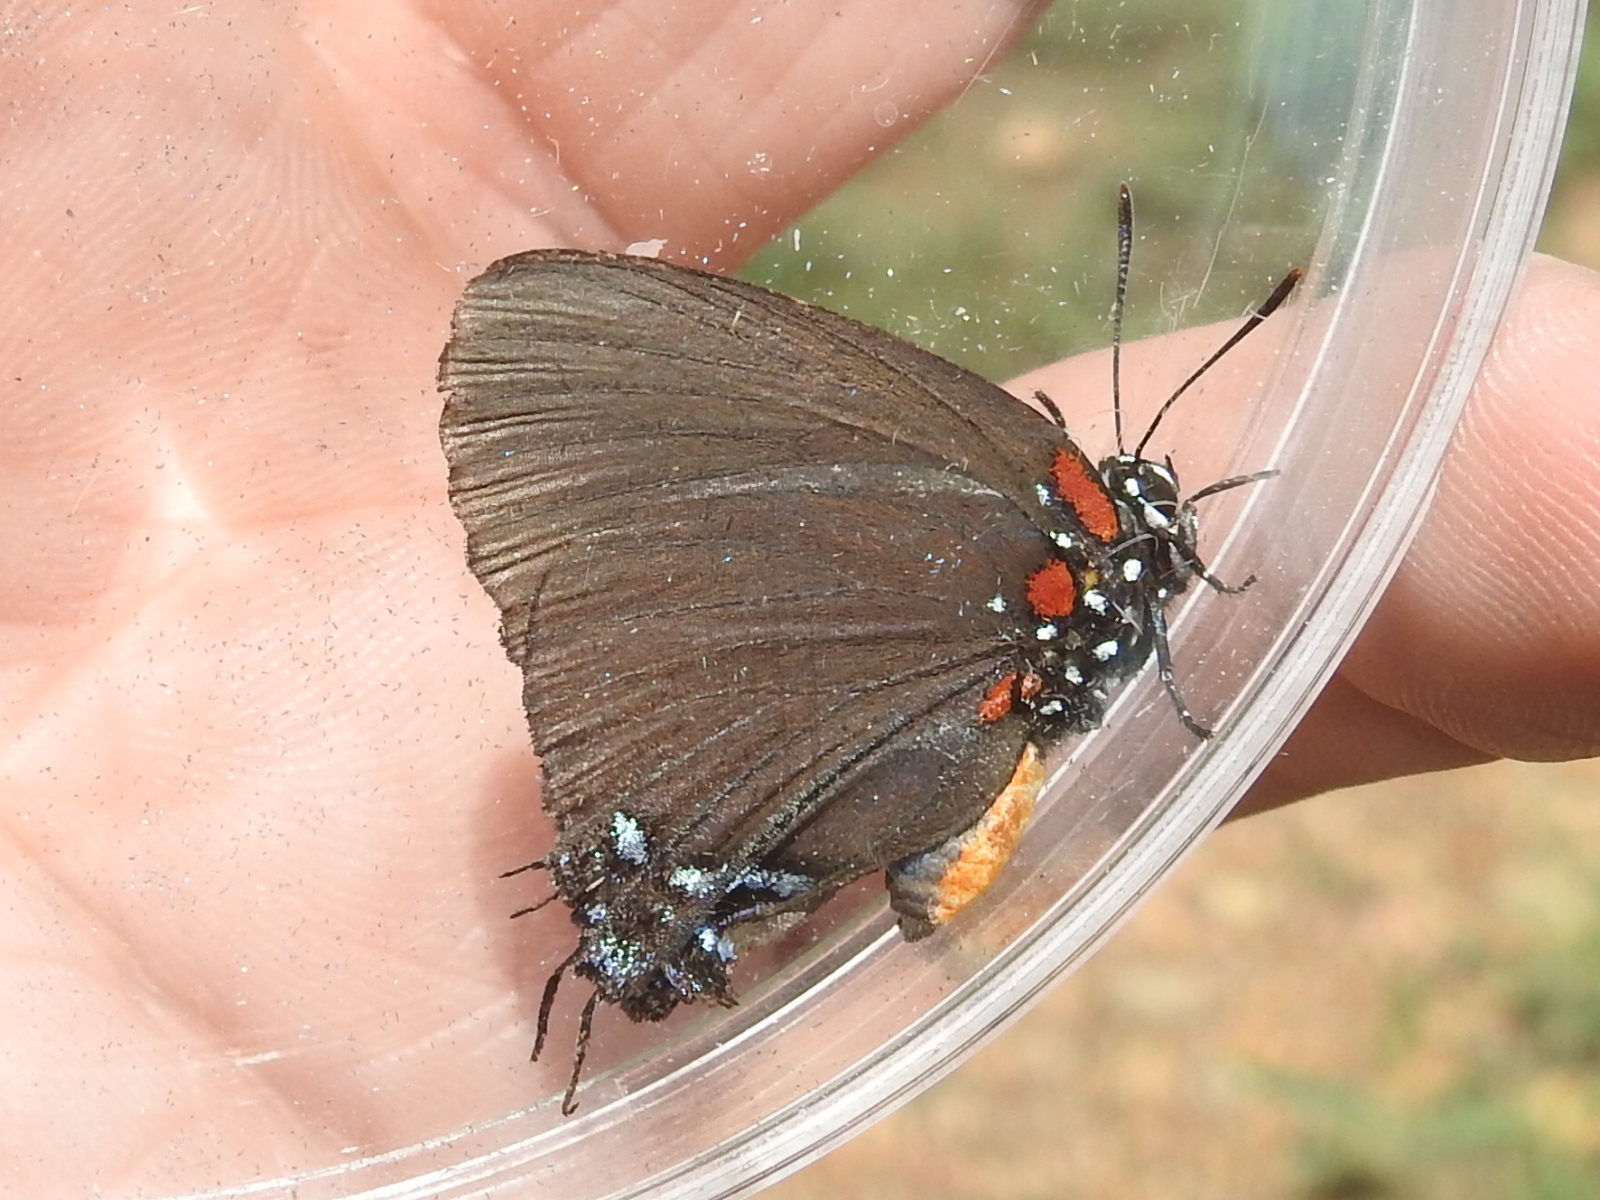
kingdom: Animalia
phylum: Arthropoda
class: Insecta
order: Lepidoptera
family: Lycaenidae
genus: Atlides
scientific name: Atlides halesus
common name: Great purple hairstreak
